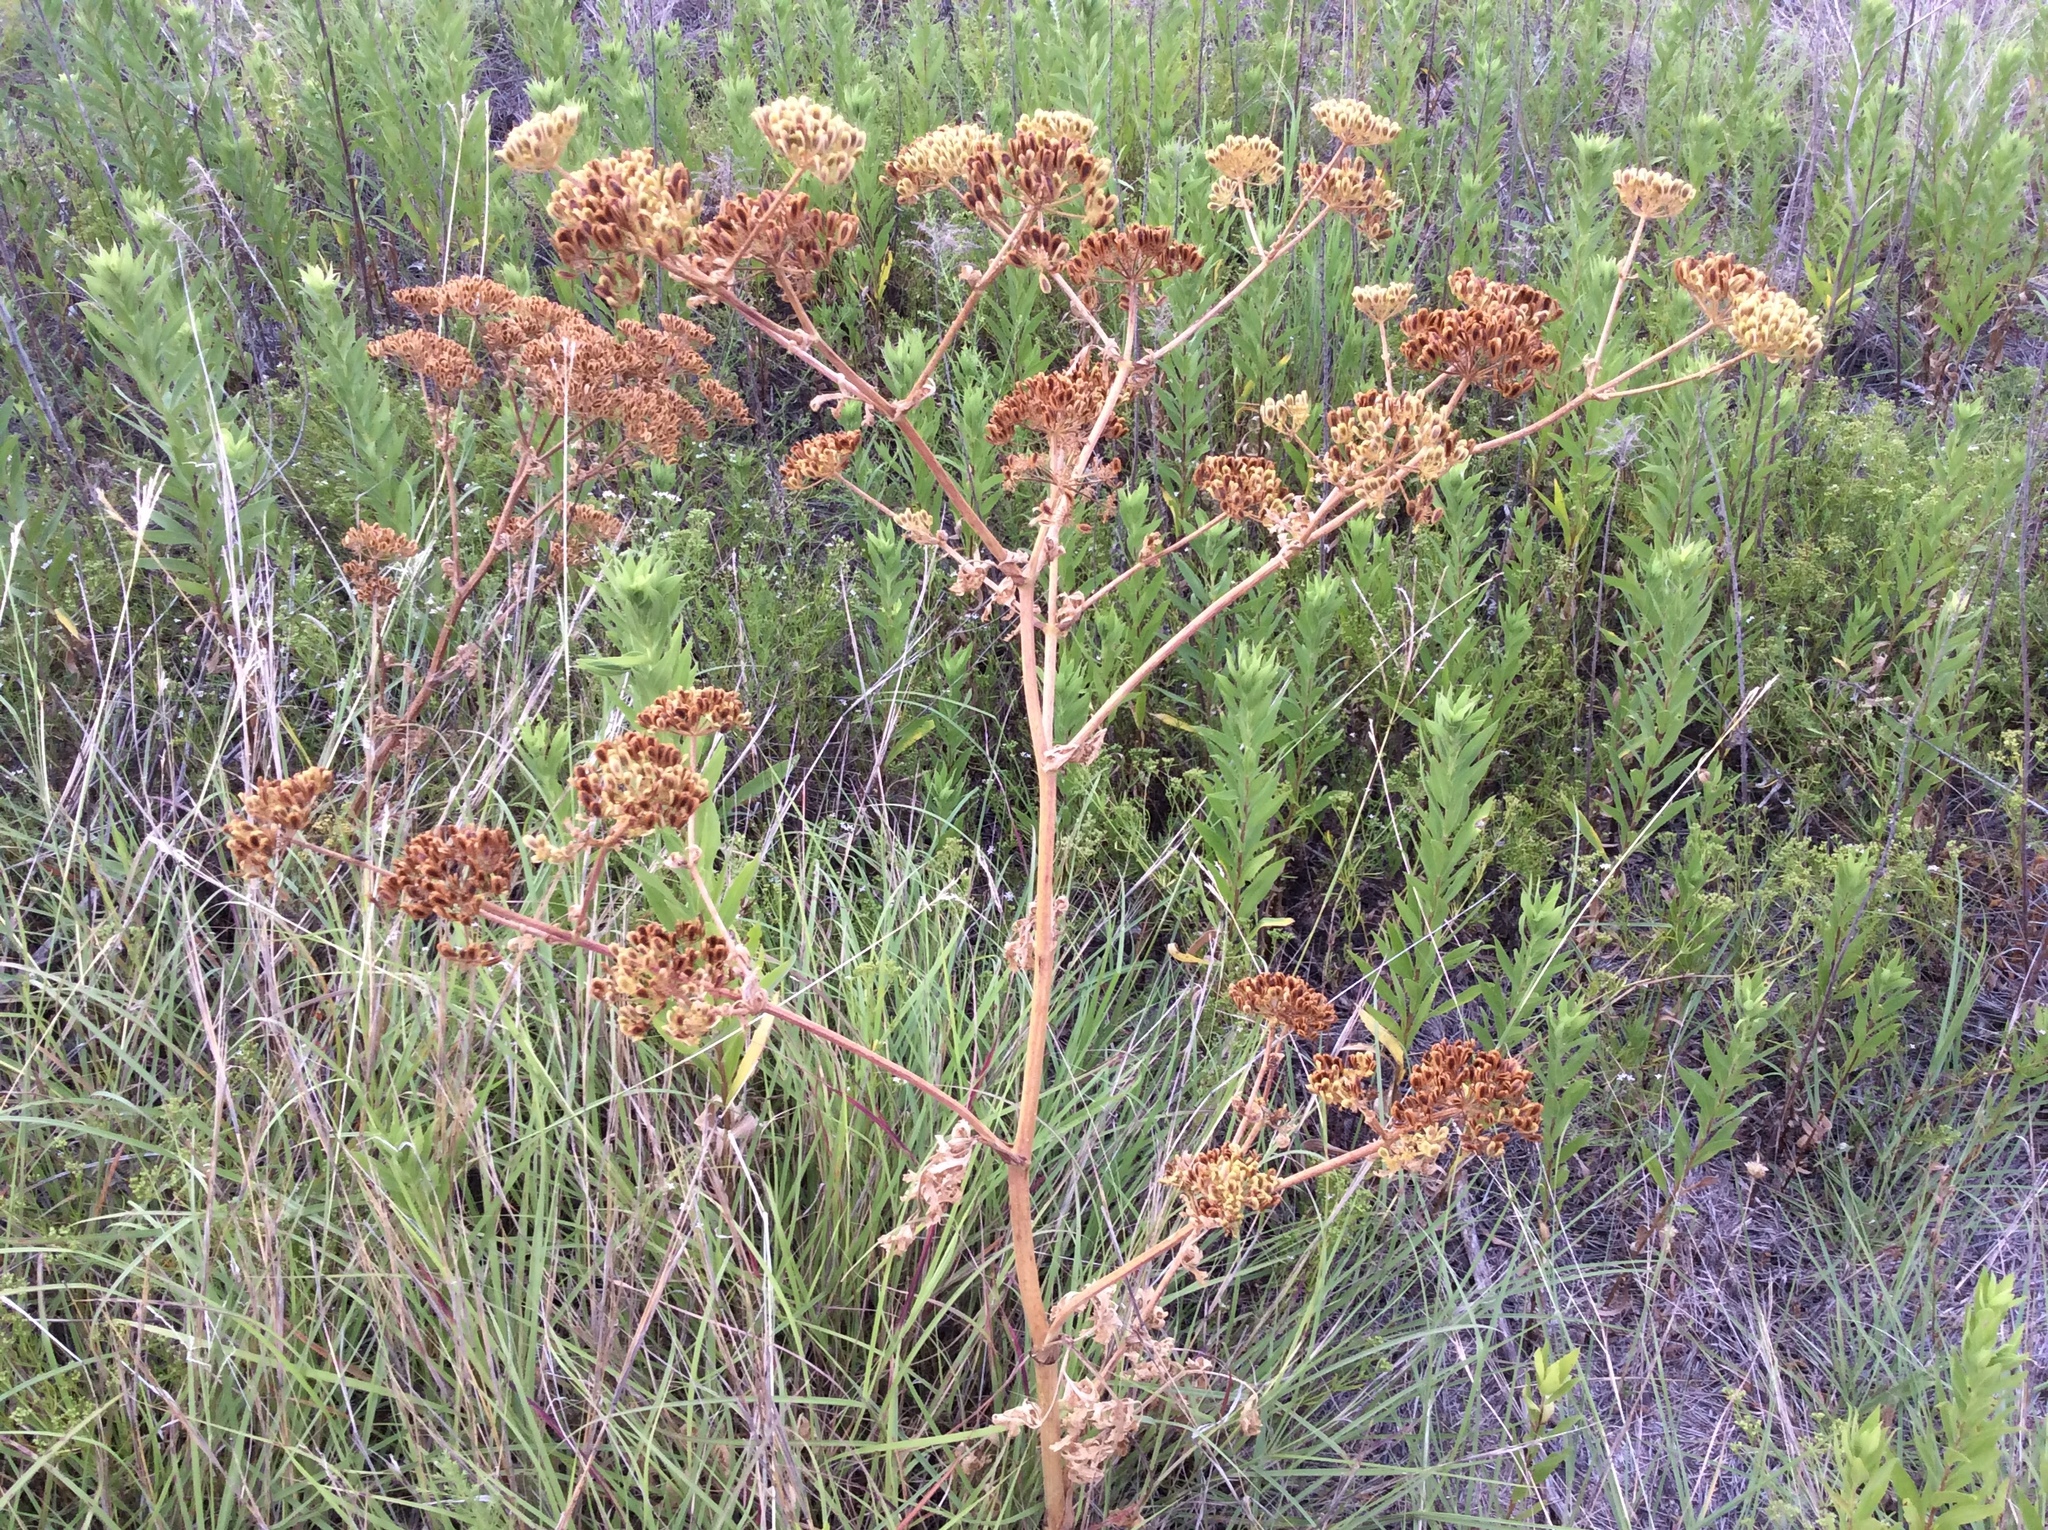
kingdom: Plantae
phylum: Tracheophyta
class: Magnoliopsida
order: Apiales
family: Apiaceae
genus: Polytaenia
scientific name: Polytaenia texana
